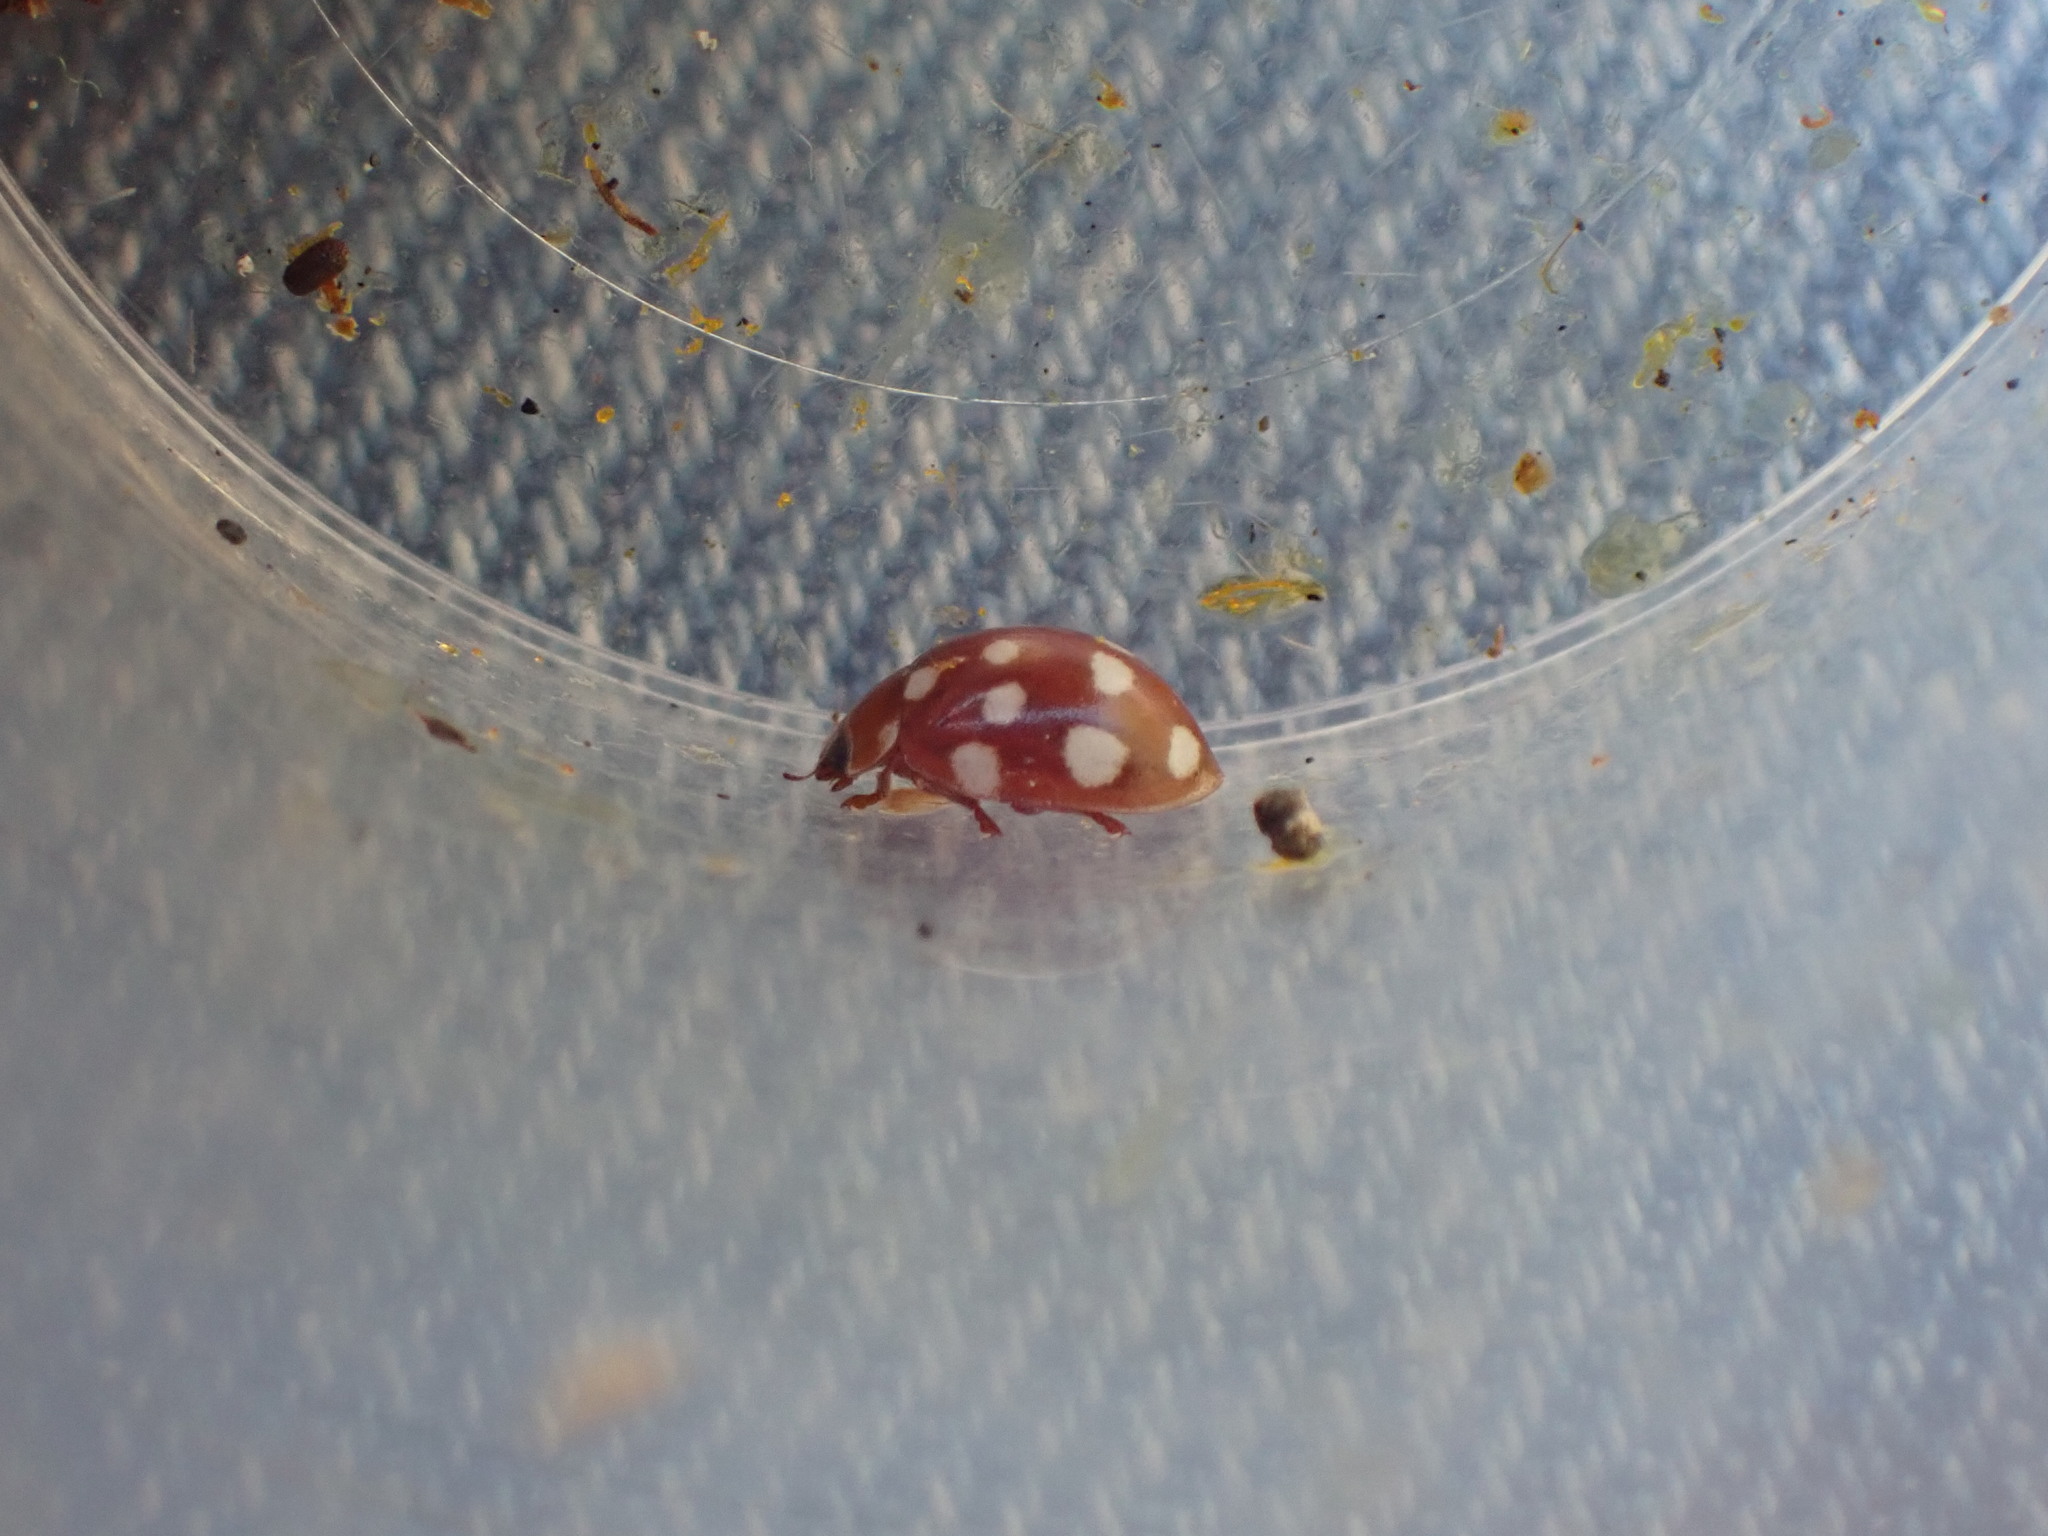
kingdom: Animalia
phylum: Arthropoda
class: Insecta
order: Coleoptera
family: Coccinellidae
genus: Calvia
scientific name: Calvia quatuordecimguttata
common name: Cream-spot ladybird
